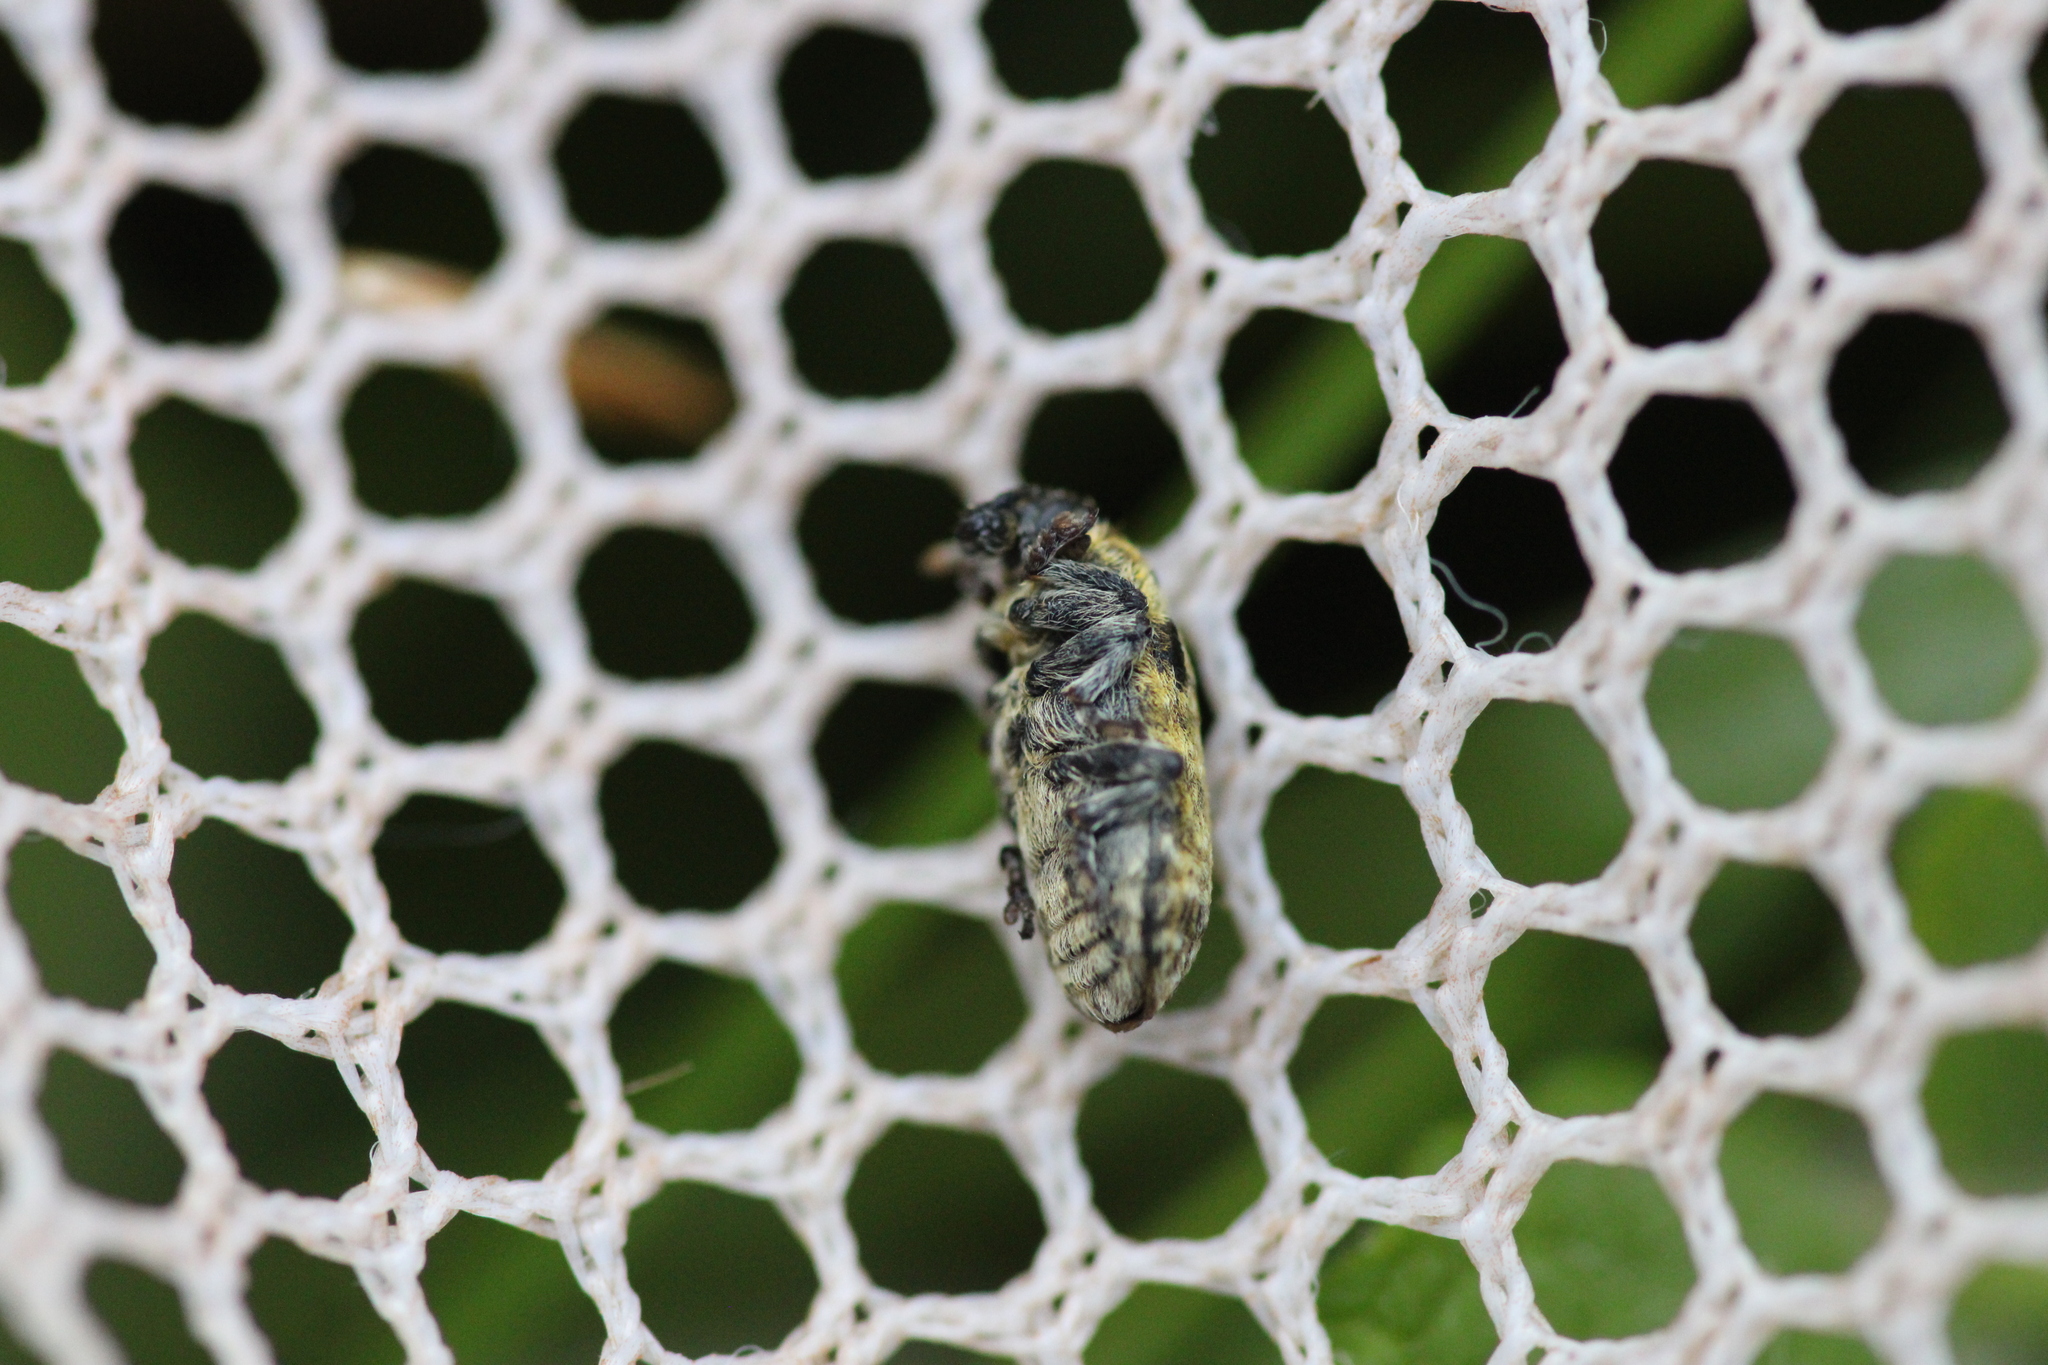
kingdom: Animalia
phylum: Arthropoda
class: Insecta
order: Coleoptera
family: Curculionidae
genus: Rhinocyllus
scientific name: Rhinocyllus conicus
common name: Weevil
